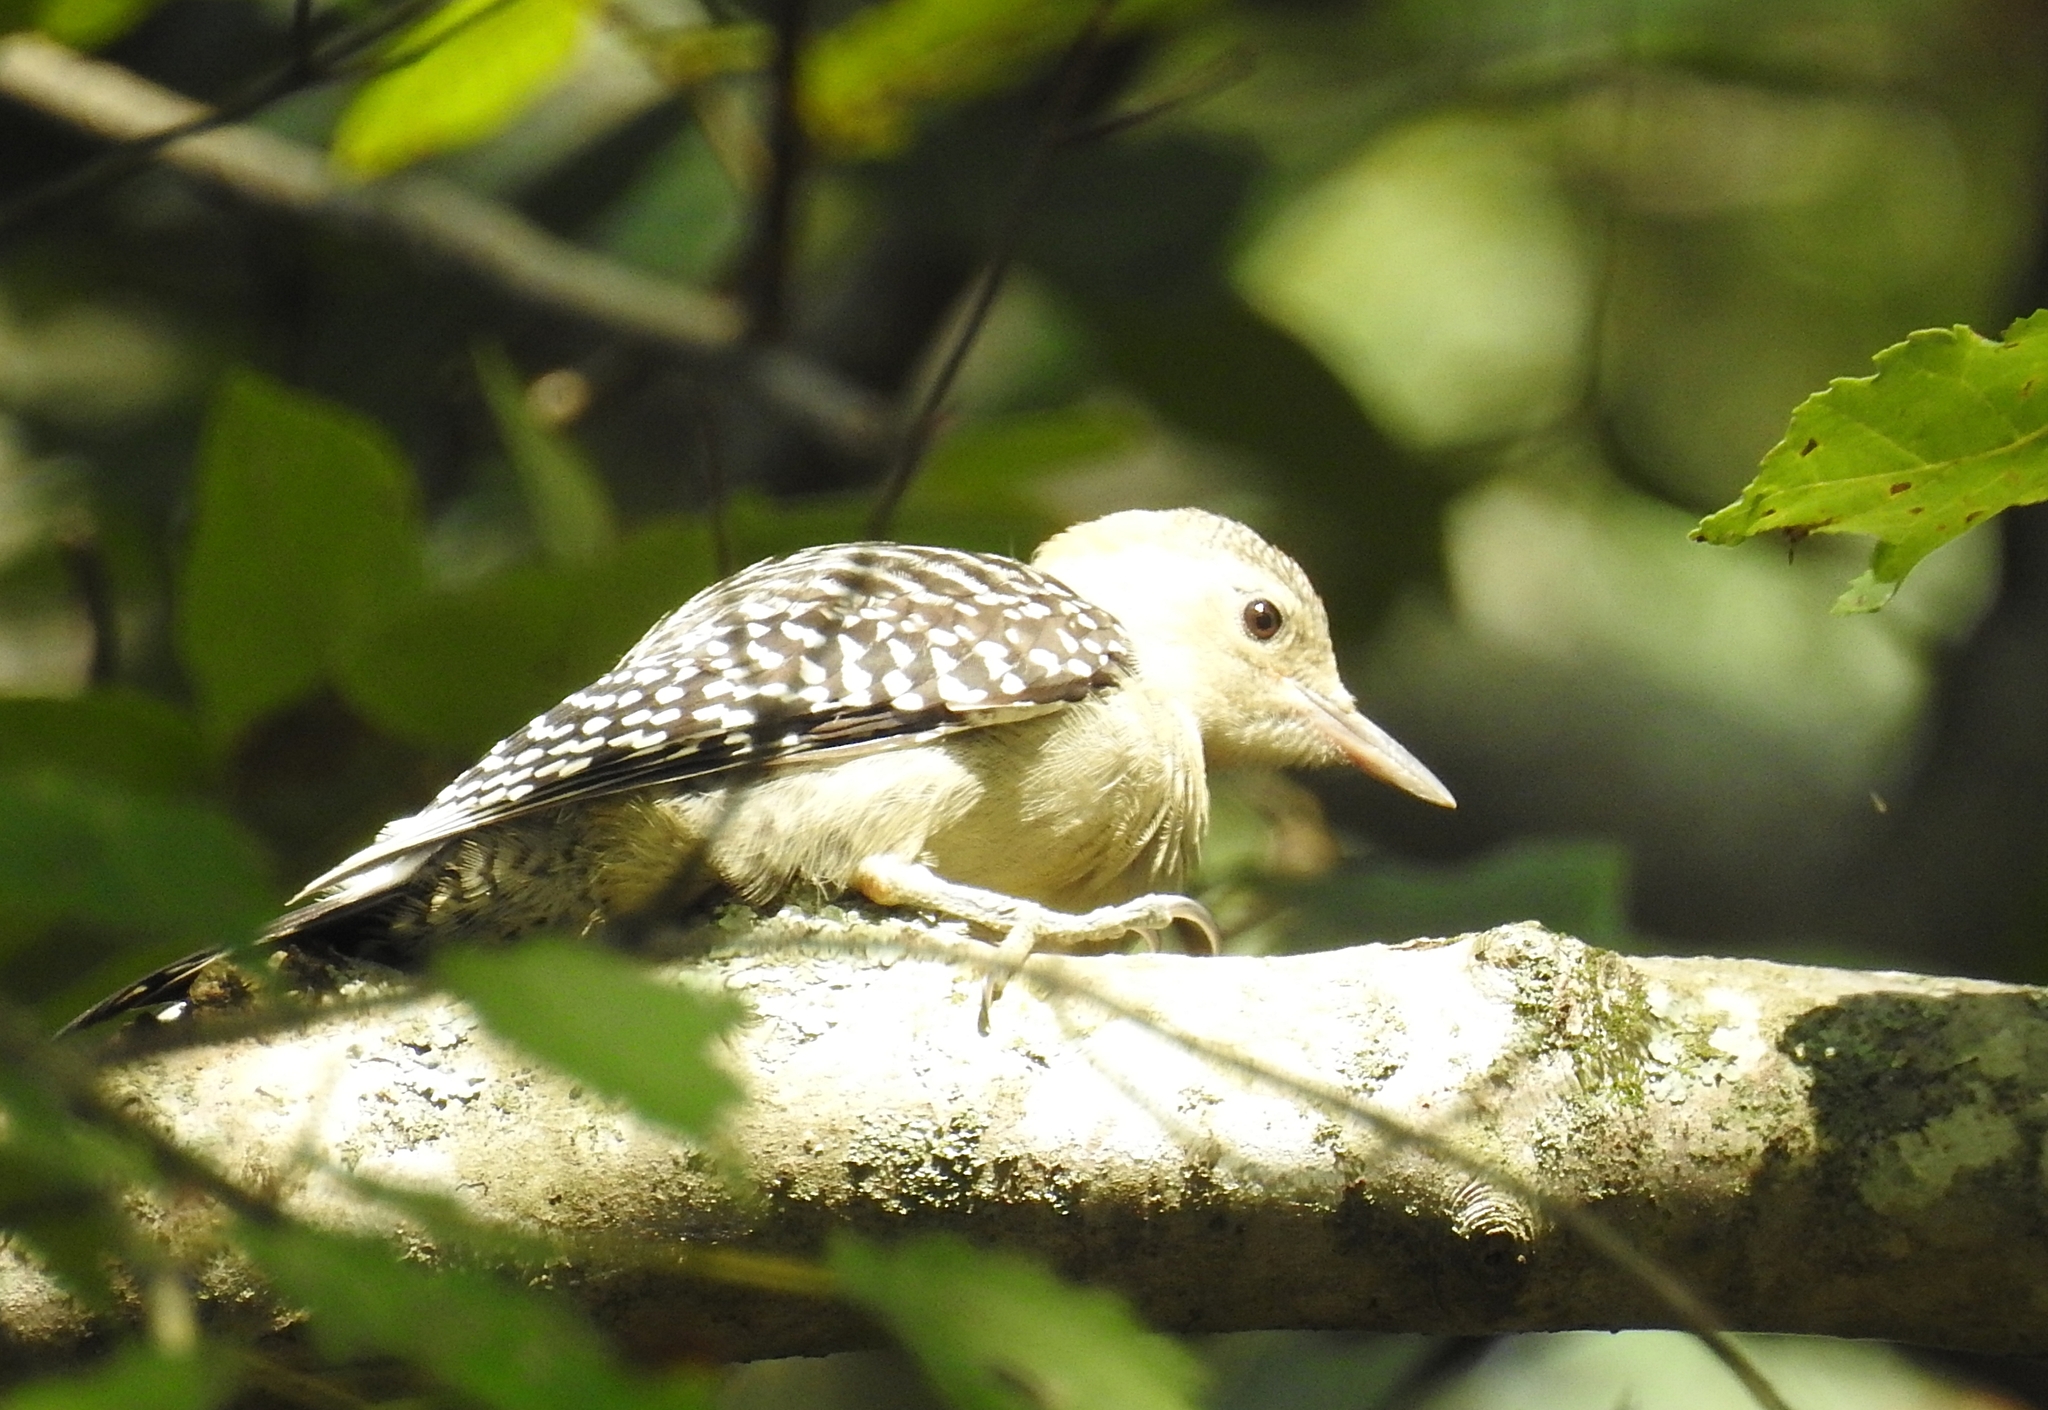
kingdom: Animalia
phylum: Chordata
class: Aves
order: Piciformes
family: Picidae
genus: Melanerpes
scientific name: Melanerpes carolinus
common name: Red-bellied woodpecker
